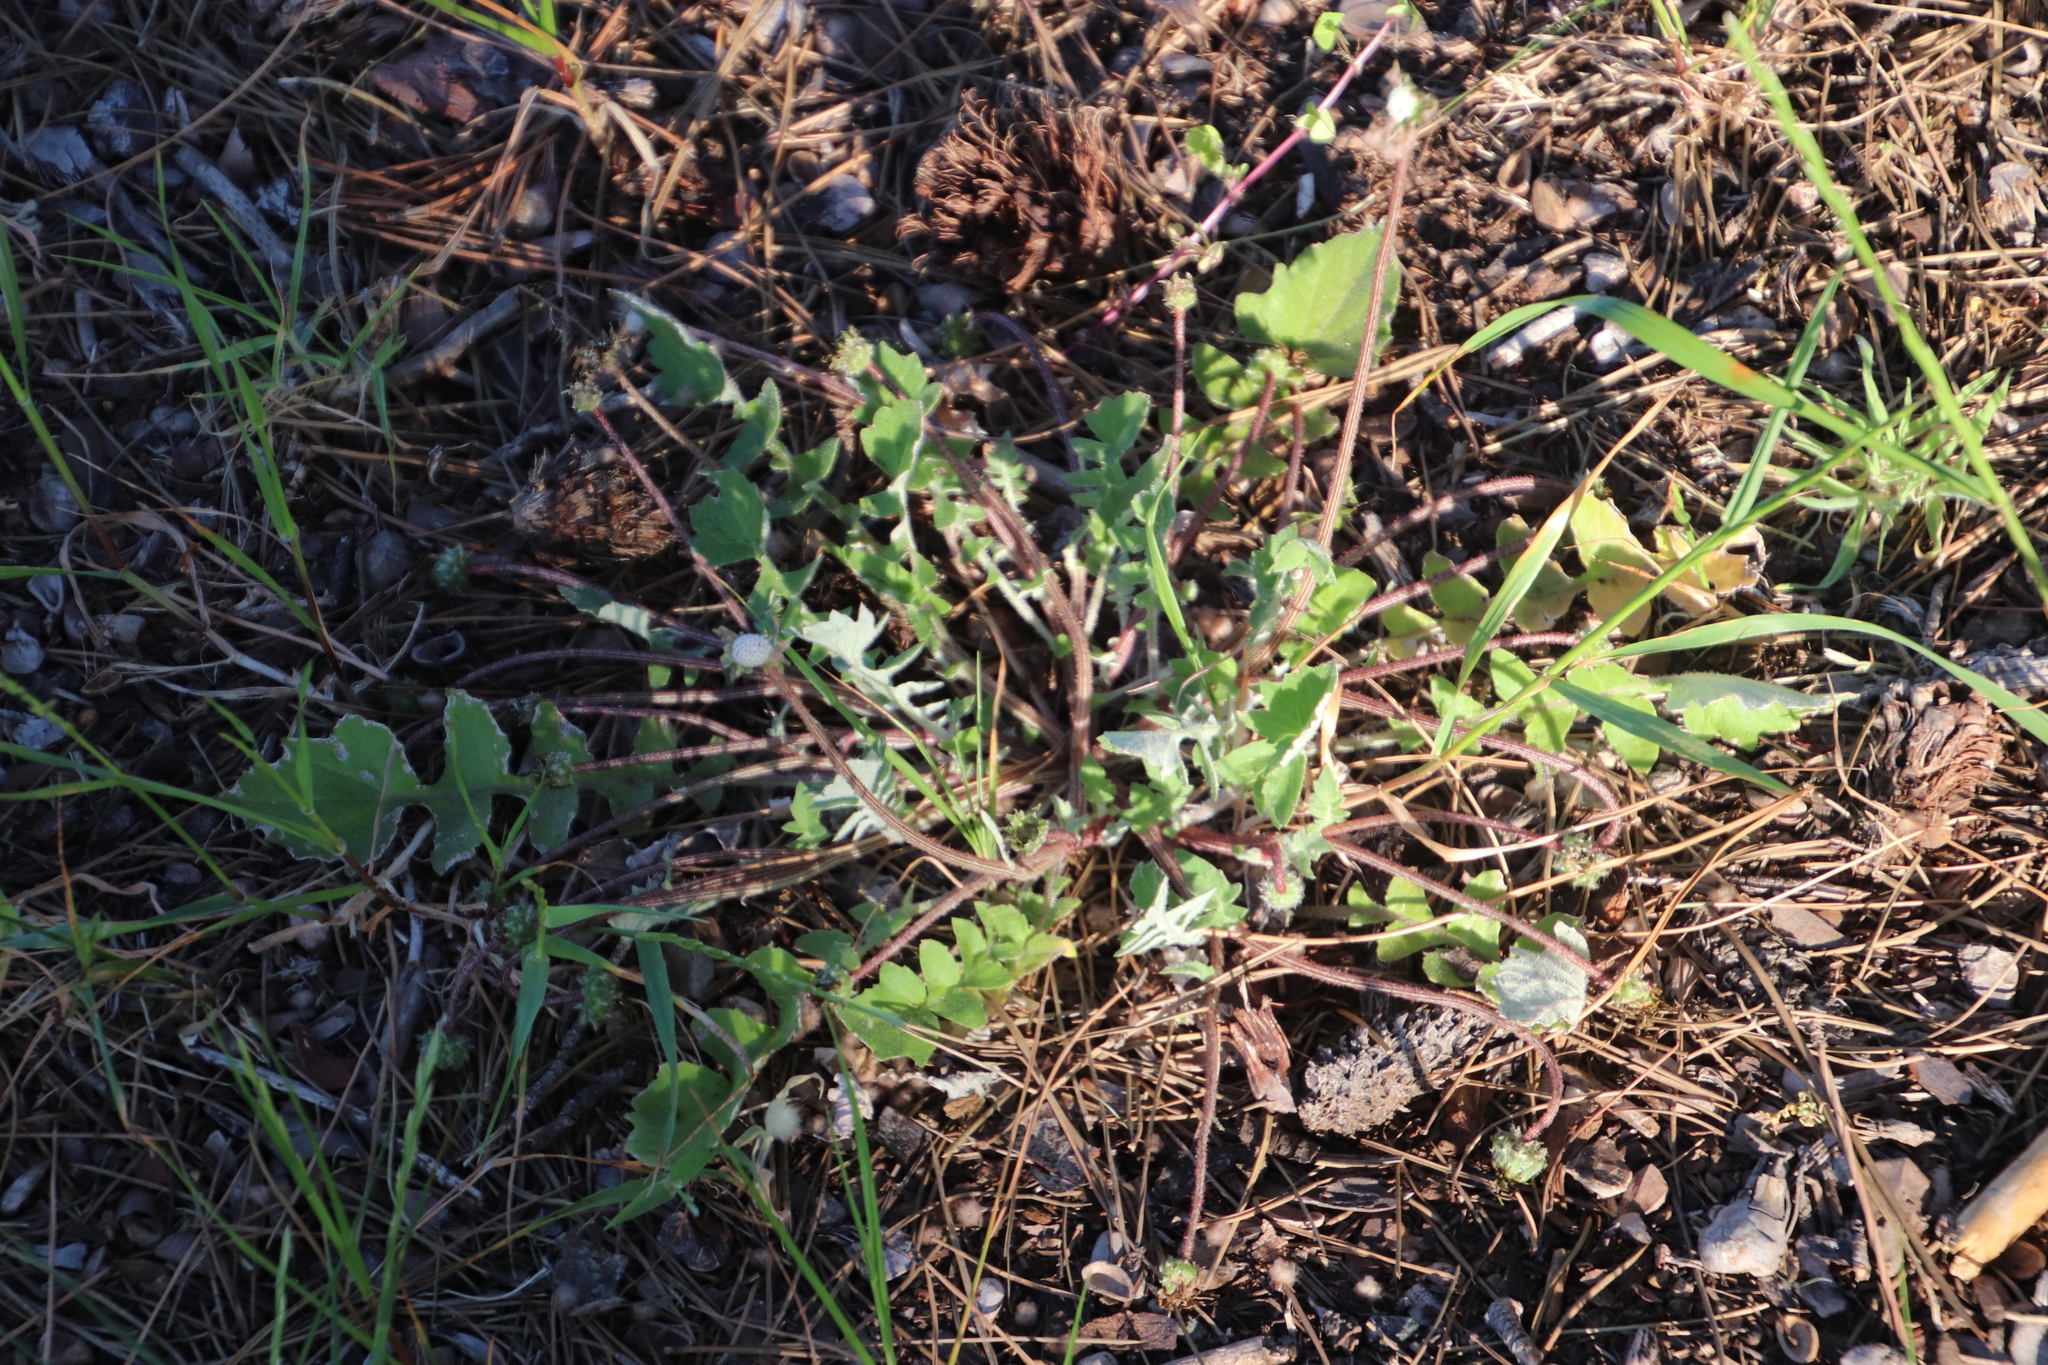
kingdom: Plantae
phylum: Tracheophyta
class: Magnoliopsida
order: Asterales
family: Asteraceae
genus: Arctotheca
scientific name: Arctotheca calendula
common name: Capeweed
